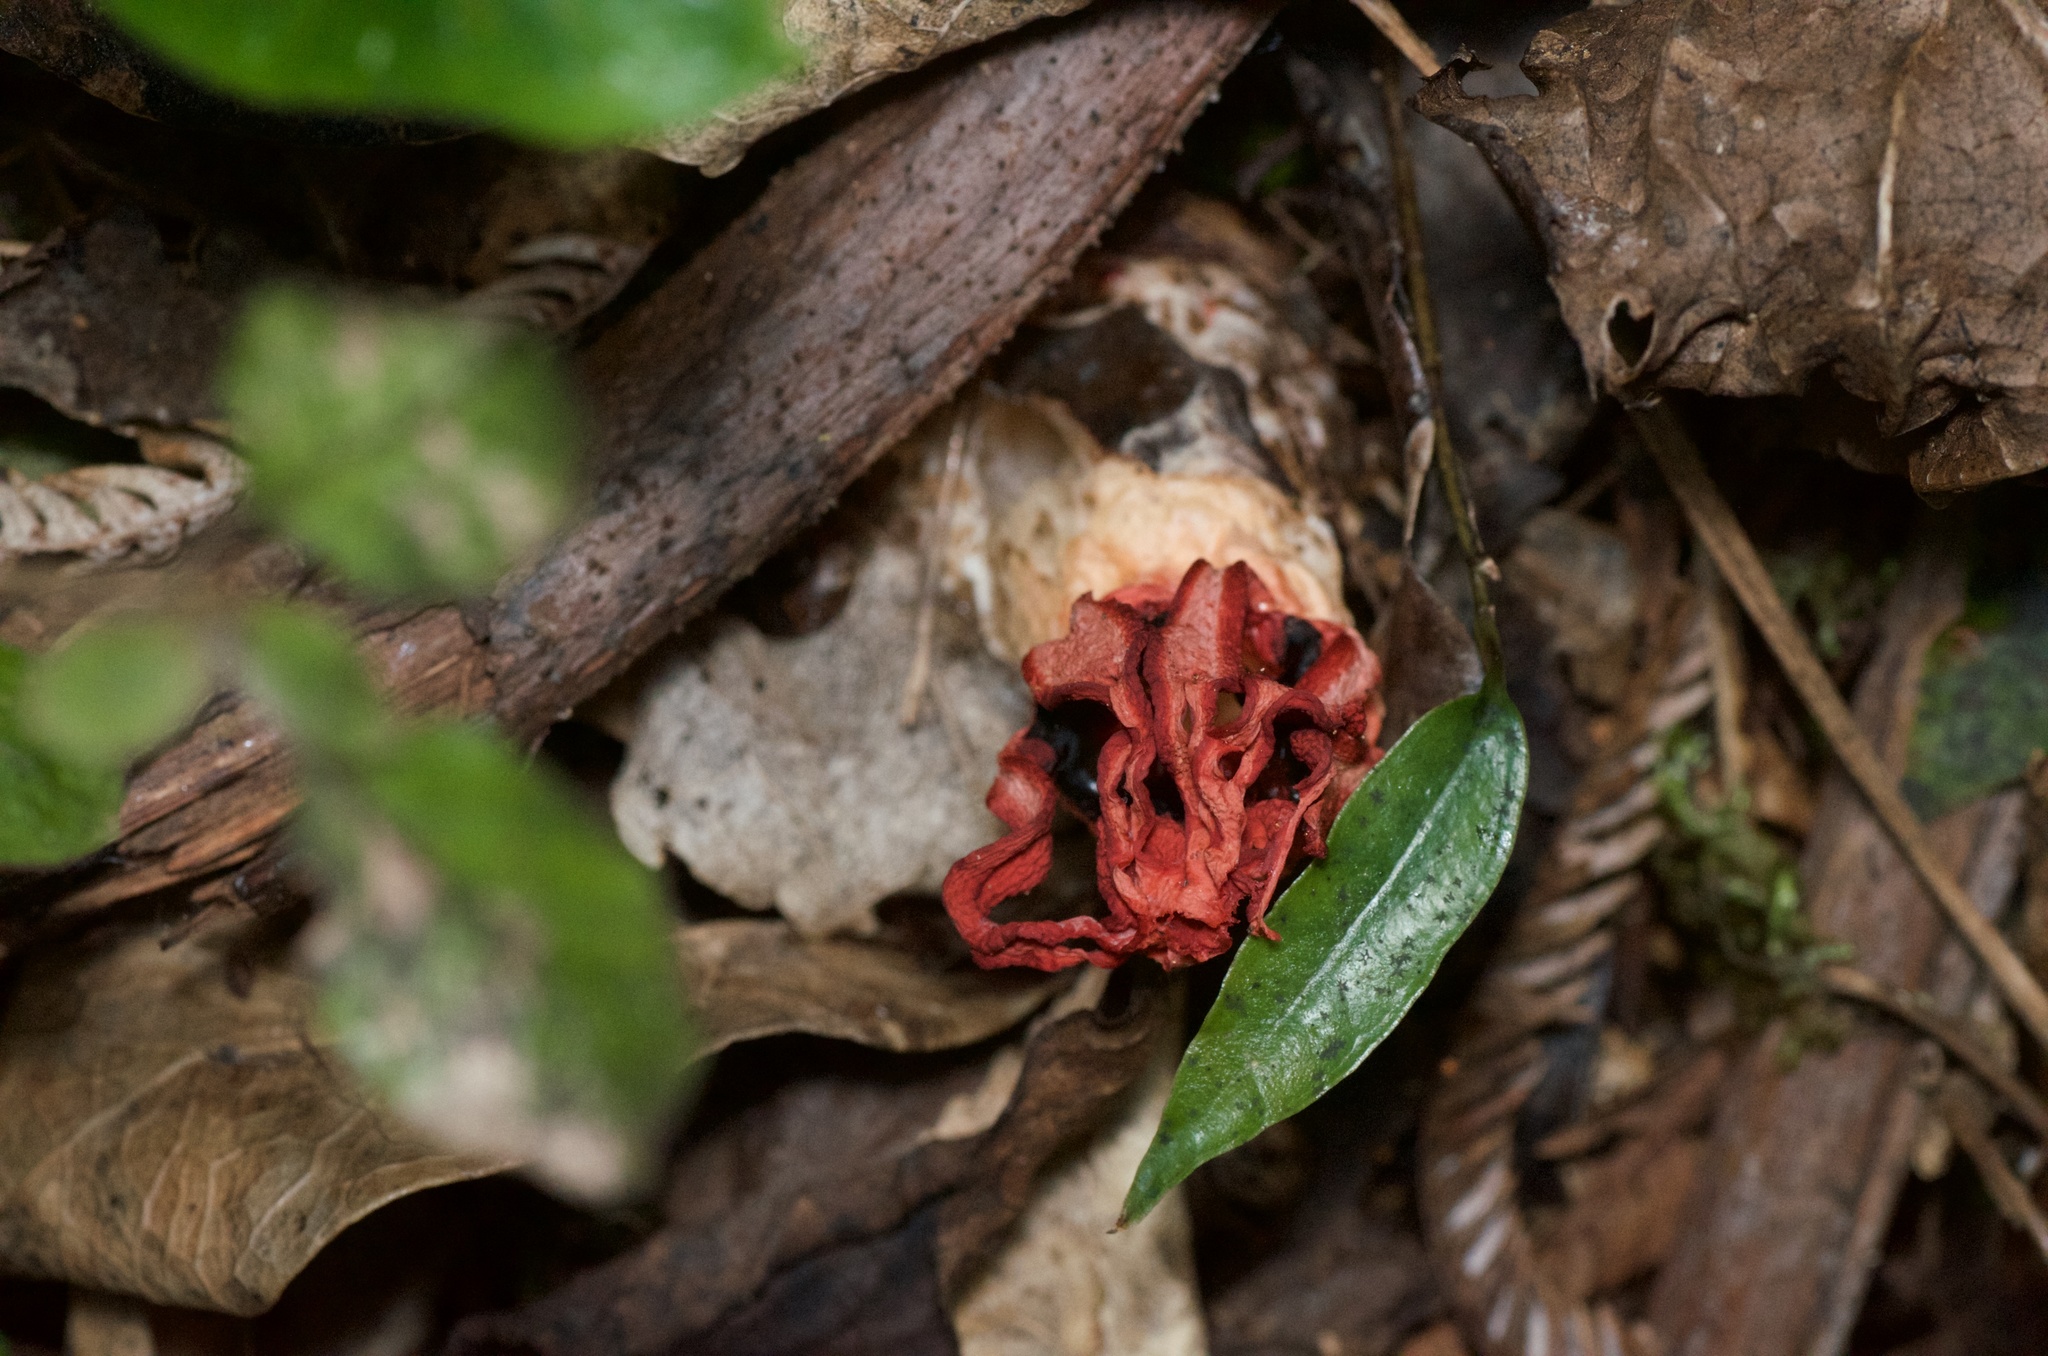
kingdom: Fungi
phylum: Basidiomycota
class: Agaricomycetes
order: Phallales
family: Phallaceae
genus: Aseroe
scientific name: Aseroe rubra
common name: Starfish fungus
